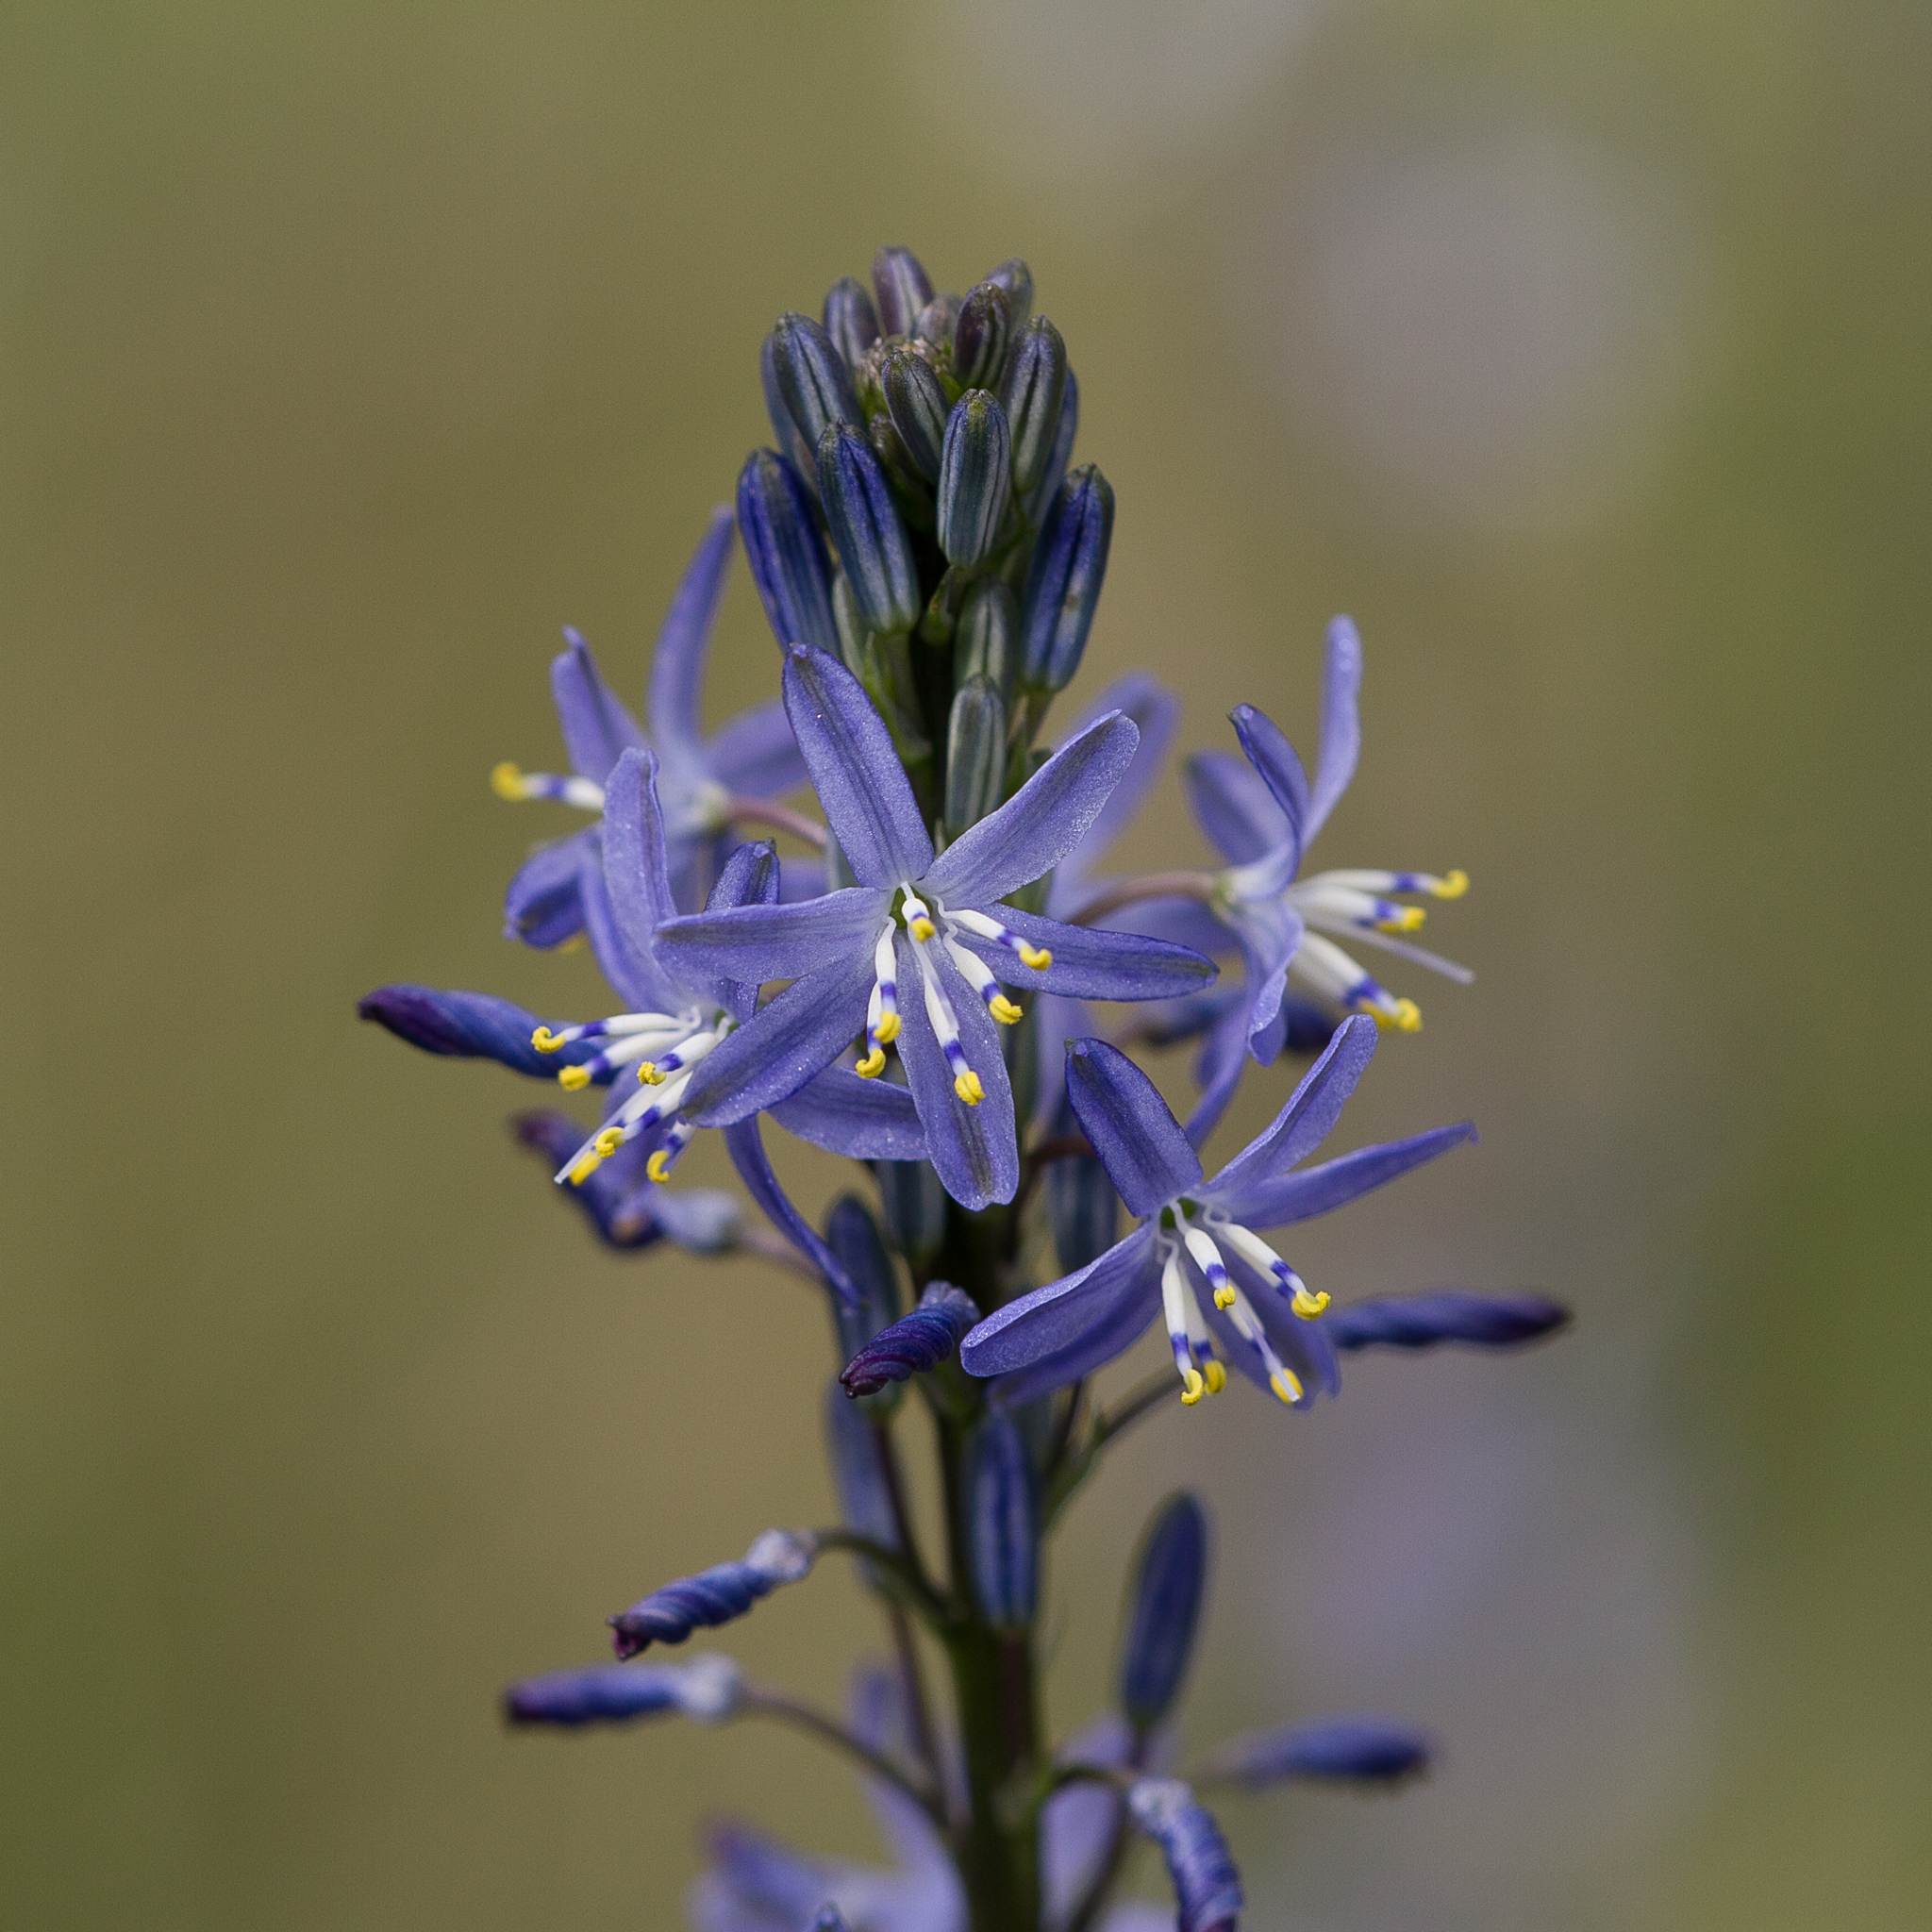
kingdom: Plantae
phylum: Tracheophyta
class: Liliopsida
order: Asparagales
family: Asphodelaceae
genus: Caesia
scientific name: Caesia calliantha
